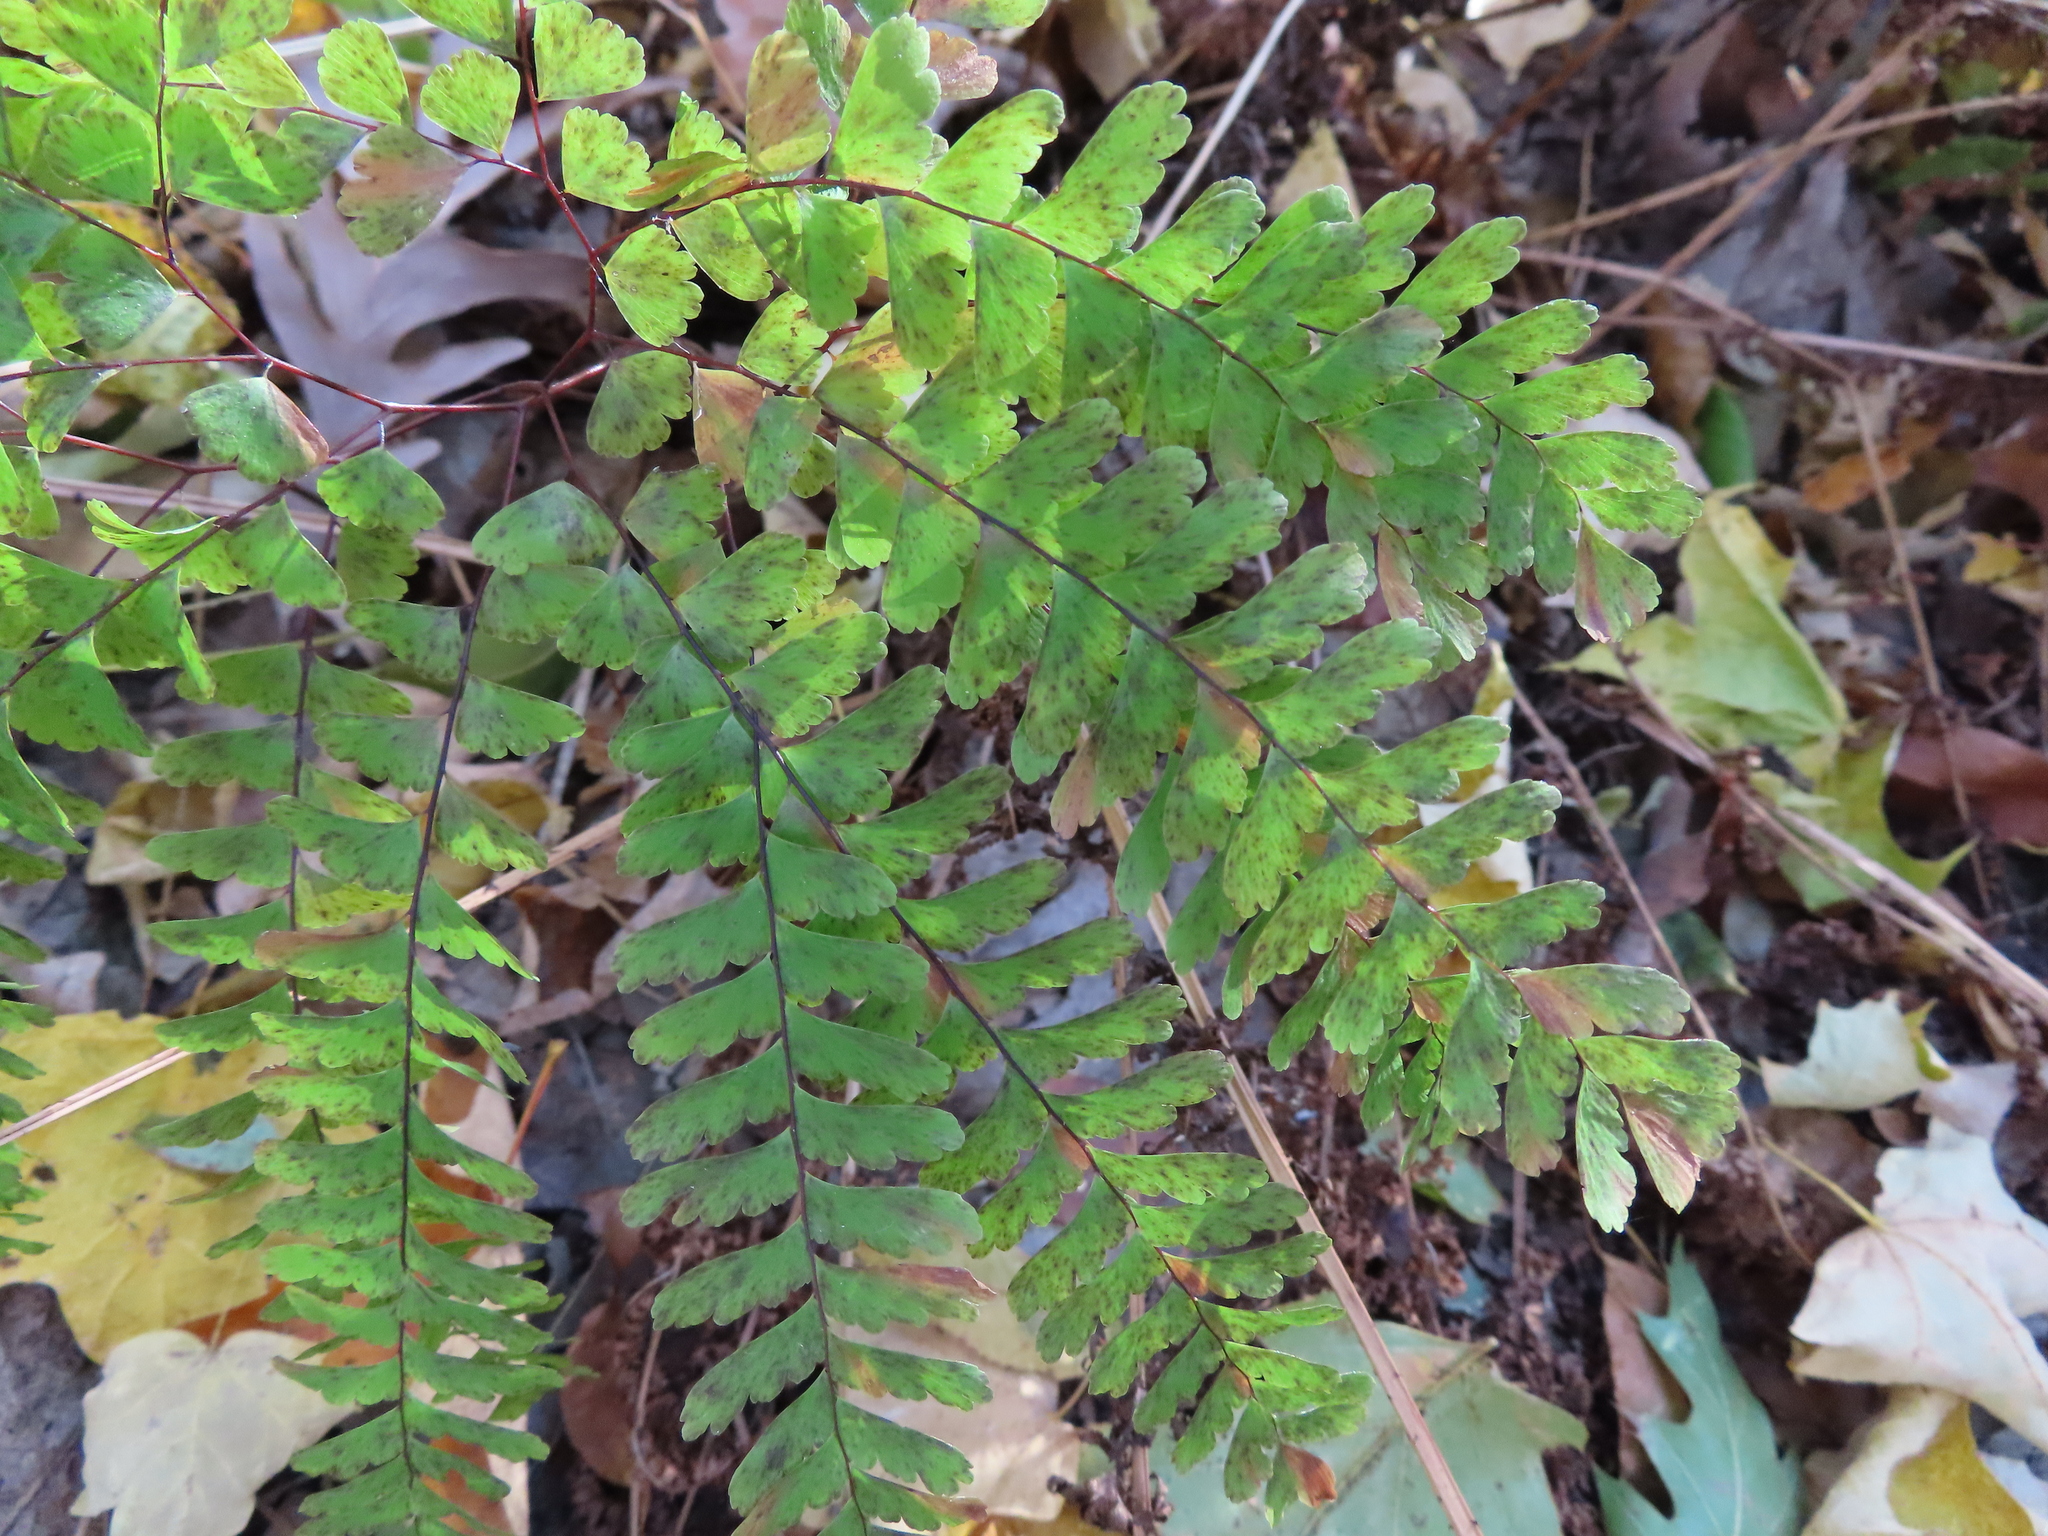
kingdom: Plantae
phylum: Tracheophyta
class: Polypodiopsida
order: Polypodiales
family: Pteridaceae
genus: Adiantum
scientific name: Adiantum pedatum
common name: Five-finger fern
